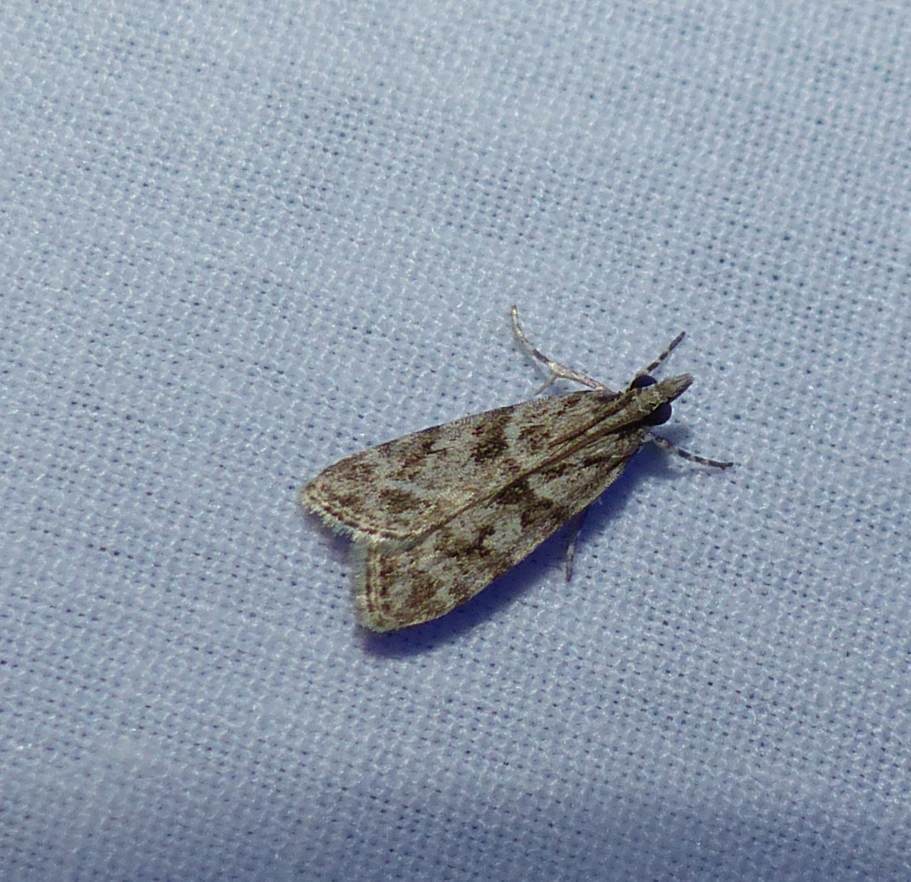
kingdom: Animalia
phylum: Arthropoda
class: Insecta
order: Lepidoptera
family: Crambidae
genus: Scoparia
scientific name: Scoparia biplagialis
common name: Double-striped scoparia moth
